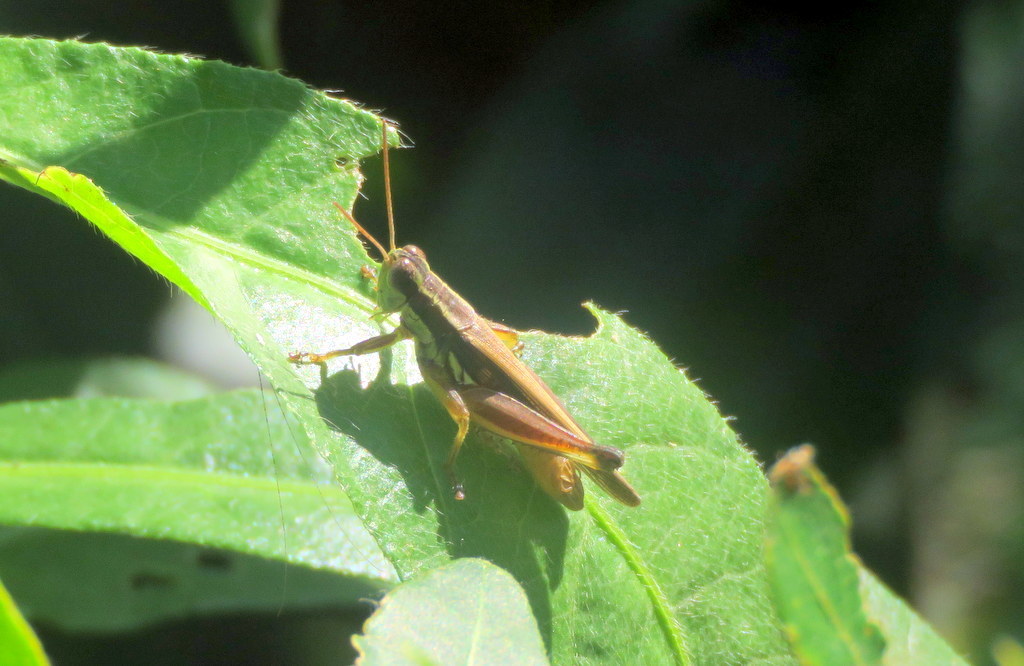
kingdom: Animalia
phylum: Arthropoda
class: Insecta
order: Orthoptera
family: Acrididae
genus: Dichroplus
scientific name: Dichroplus elongatus
